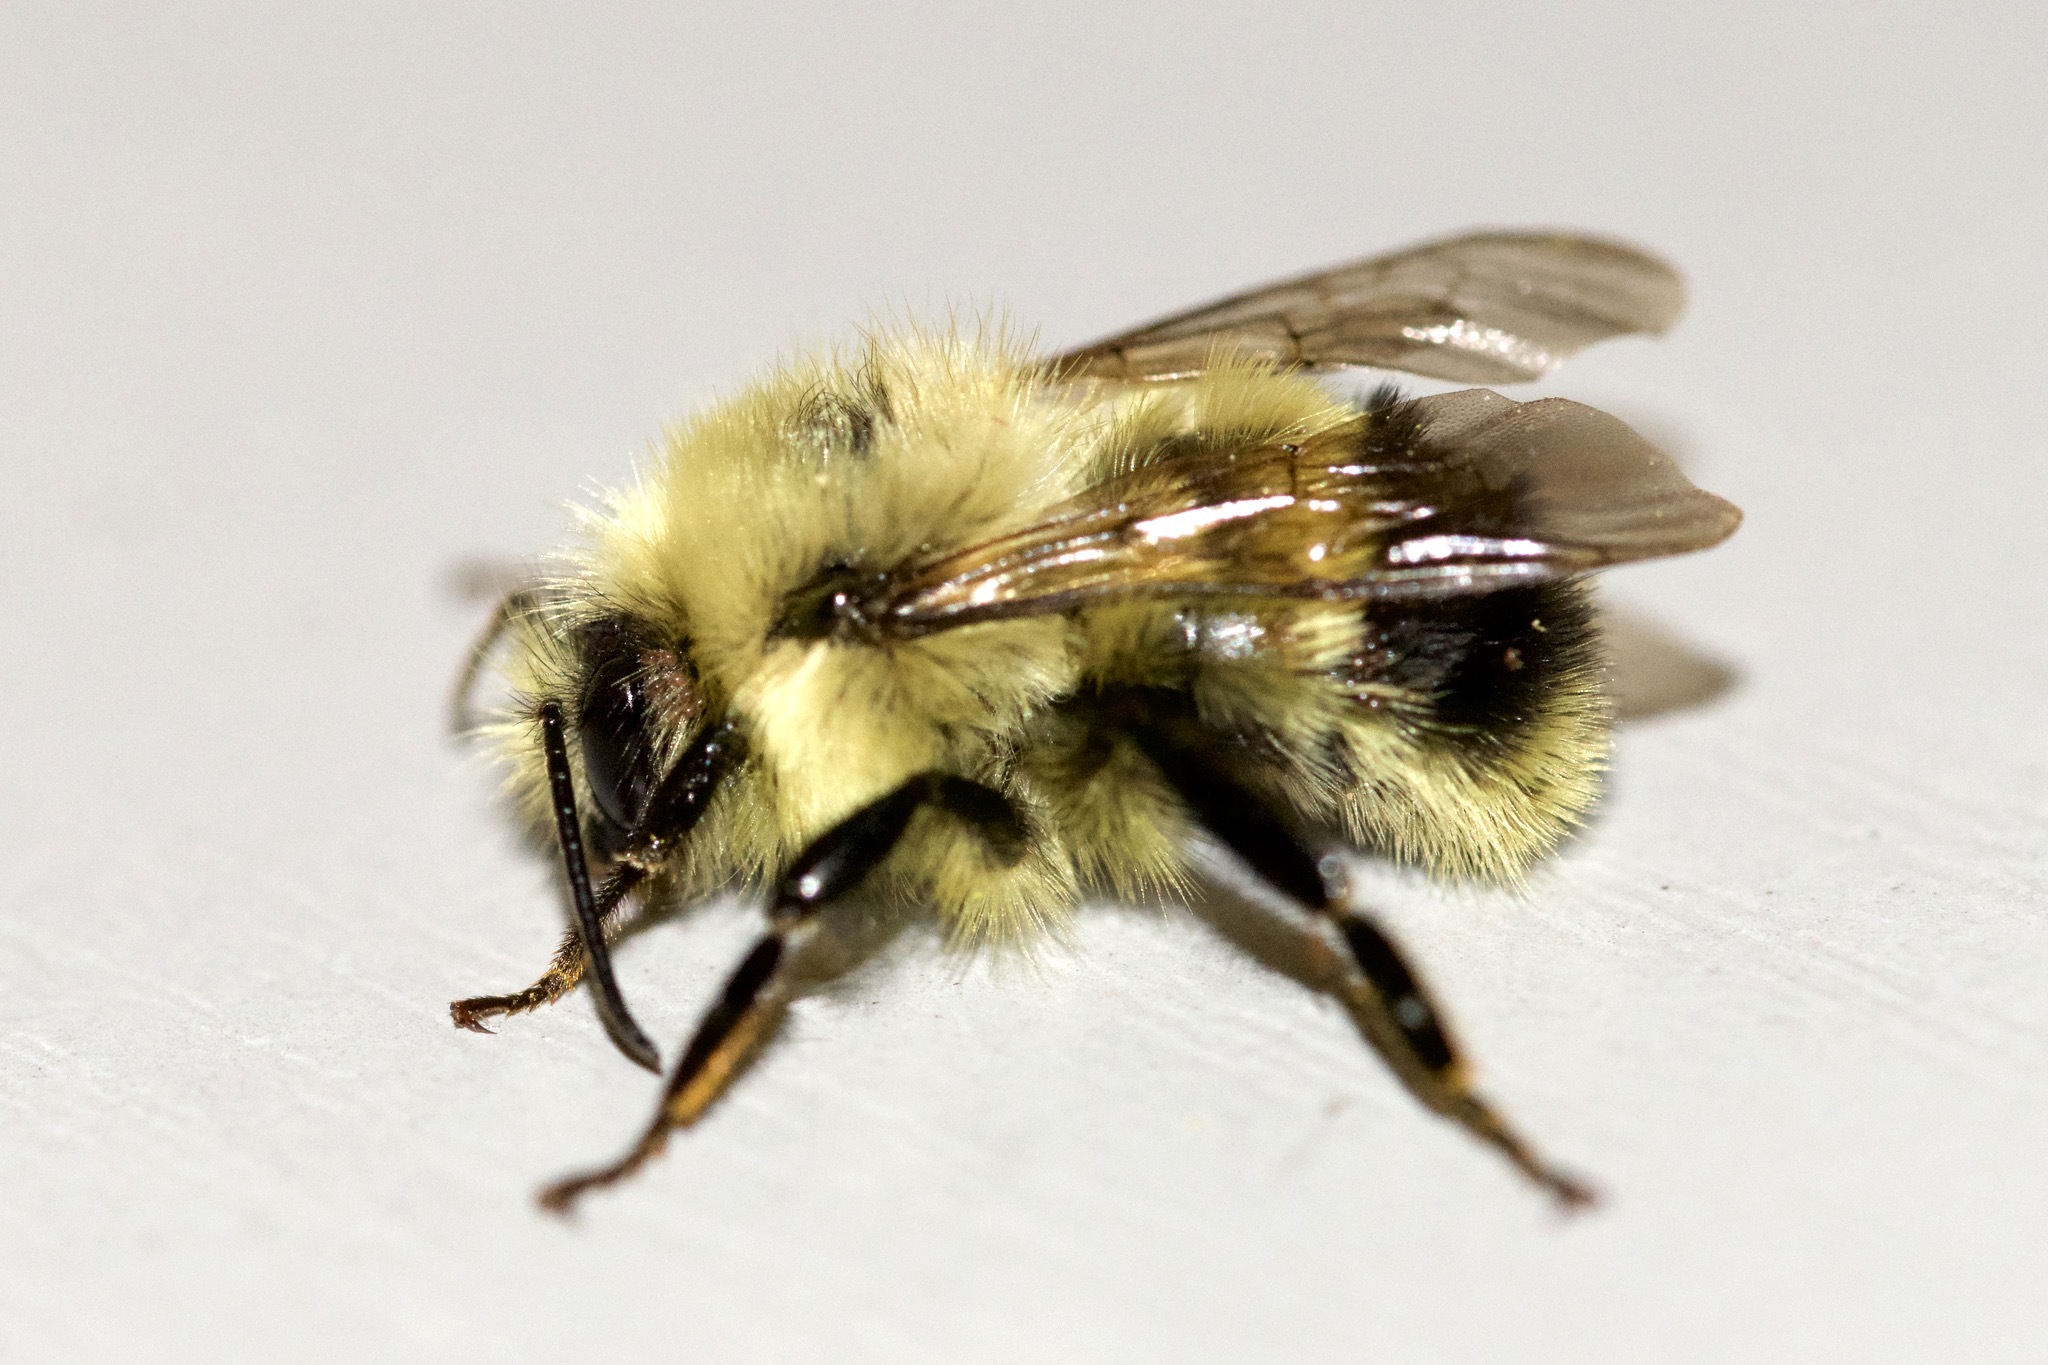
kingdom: Animalia
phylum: Arthropoda
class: Insecta
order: Hymenoptera
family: Apidae
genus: Bombus
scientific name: Bombus vagans
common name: Half-black bumble bee
